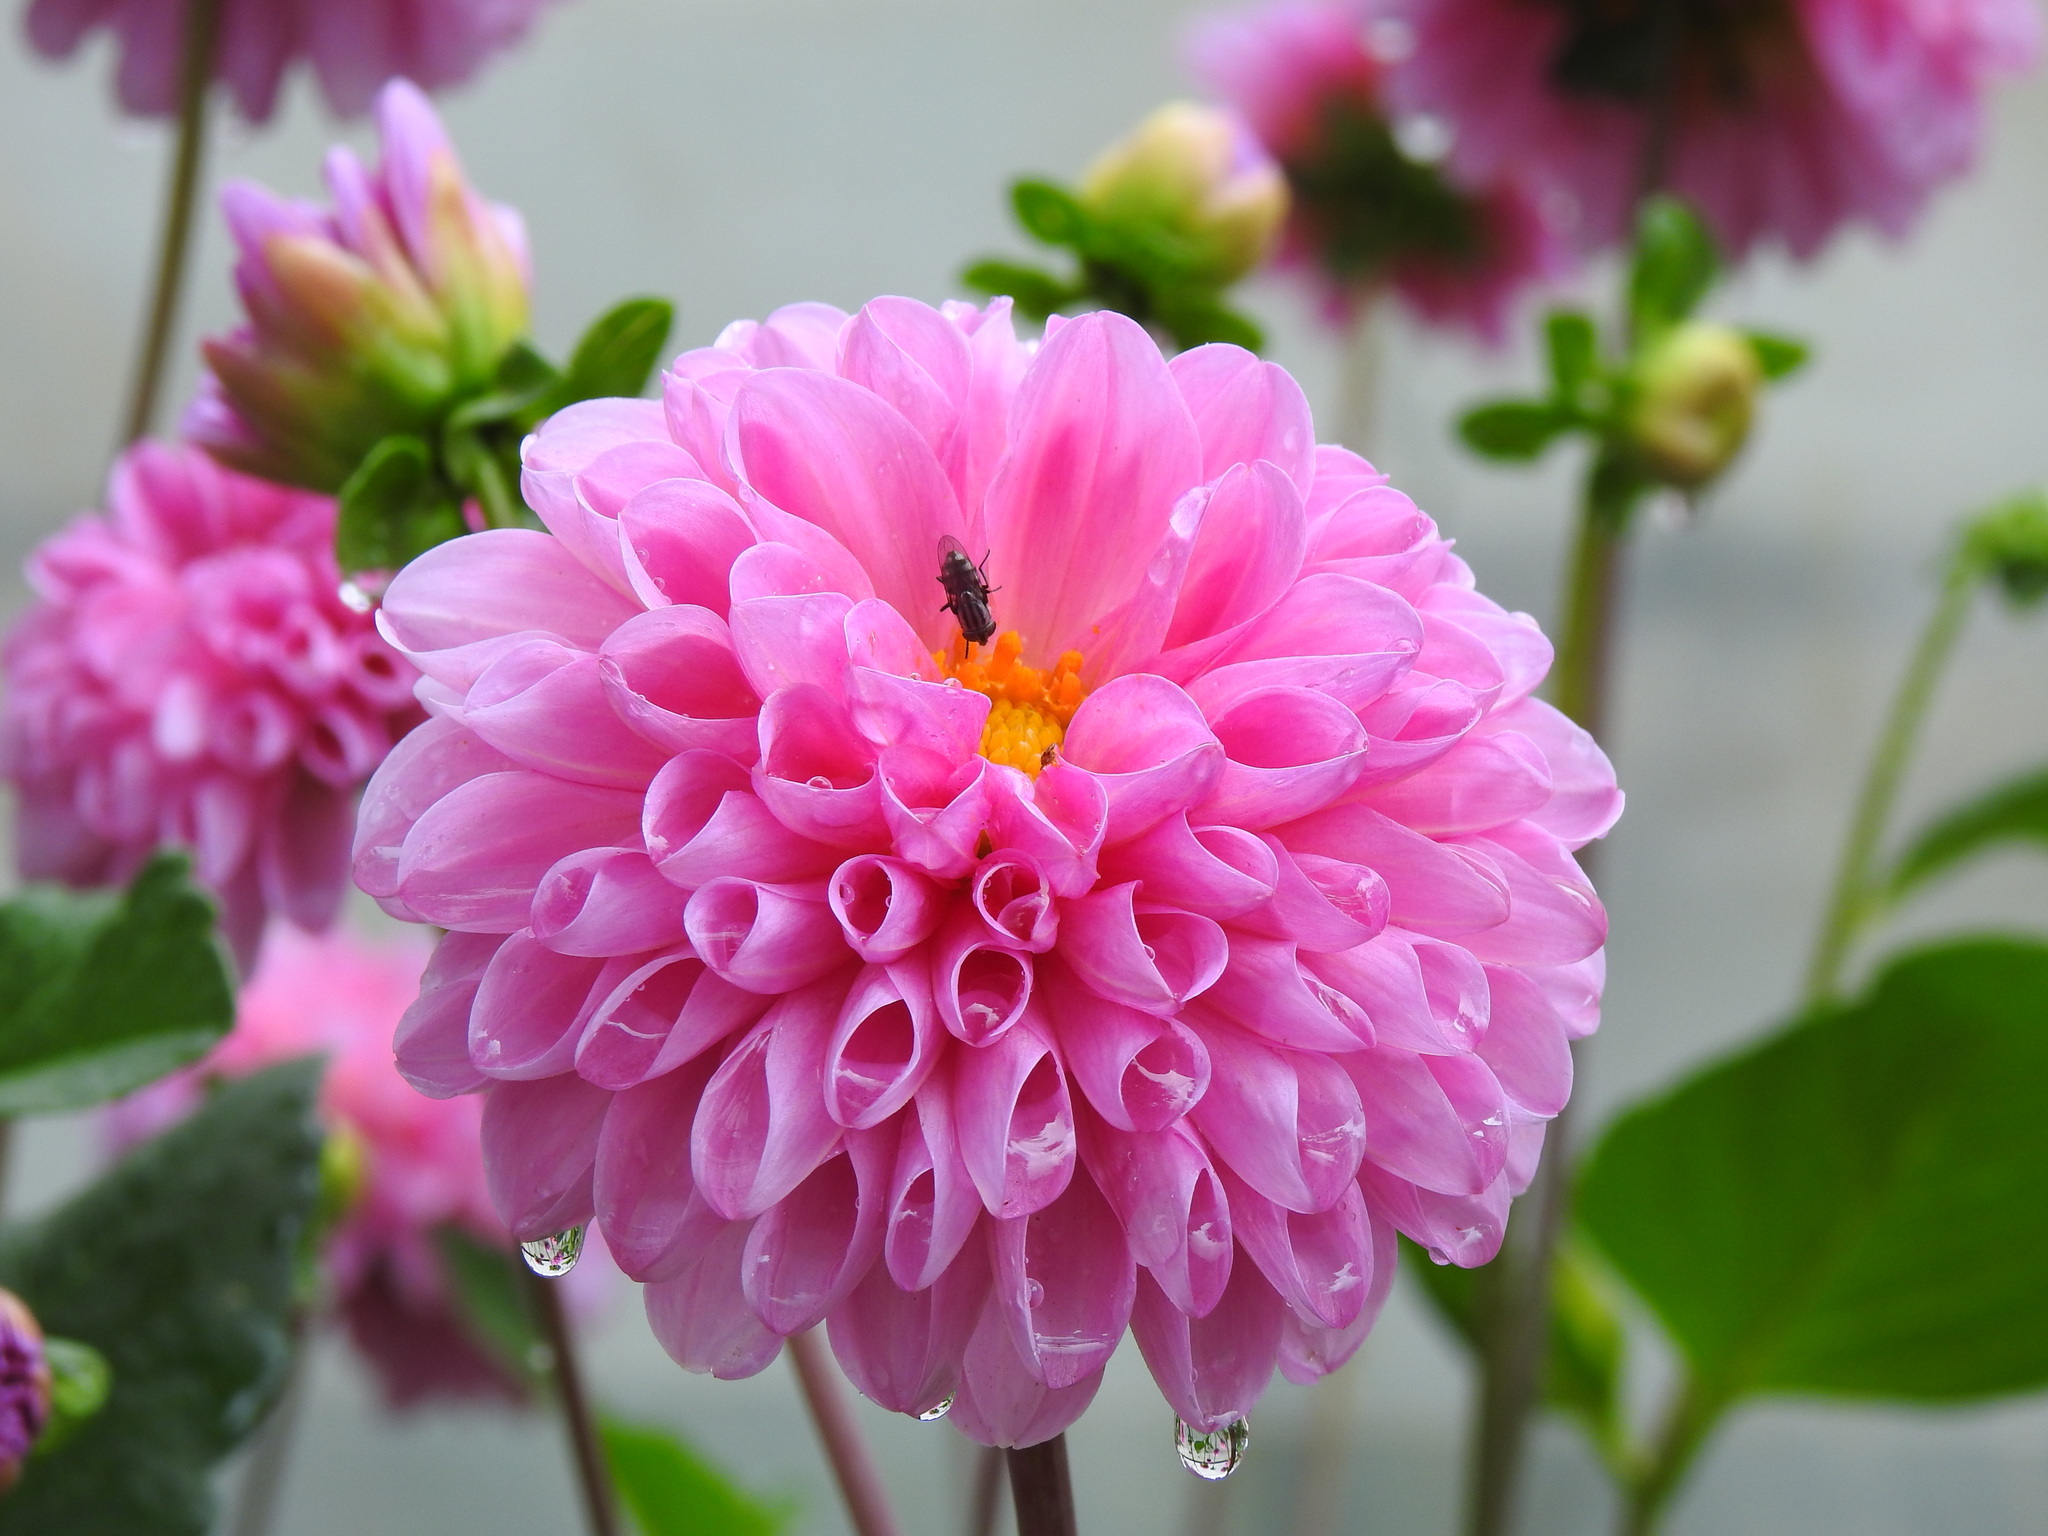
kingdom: Animalia
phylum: Arthropoda
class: Insecta
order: Diptera
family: Calliphoridae
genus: Stomorhina
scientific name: Stomorhina lunata
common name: Locust blowfly
